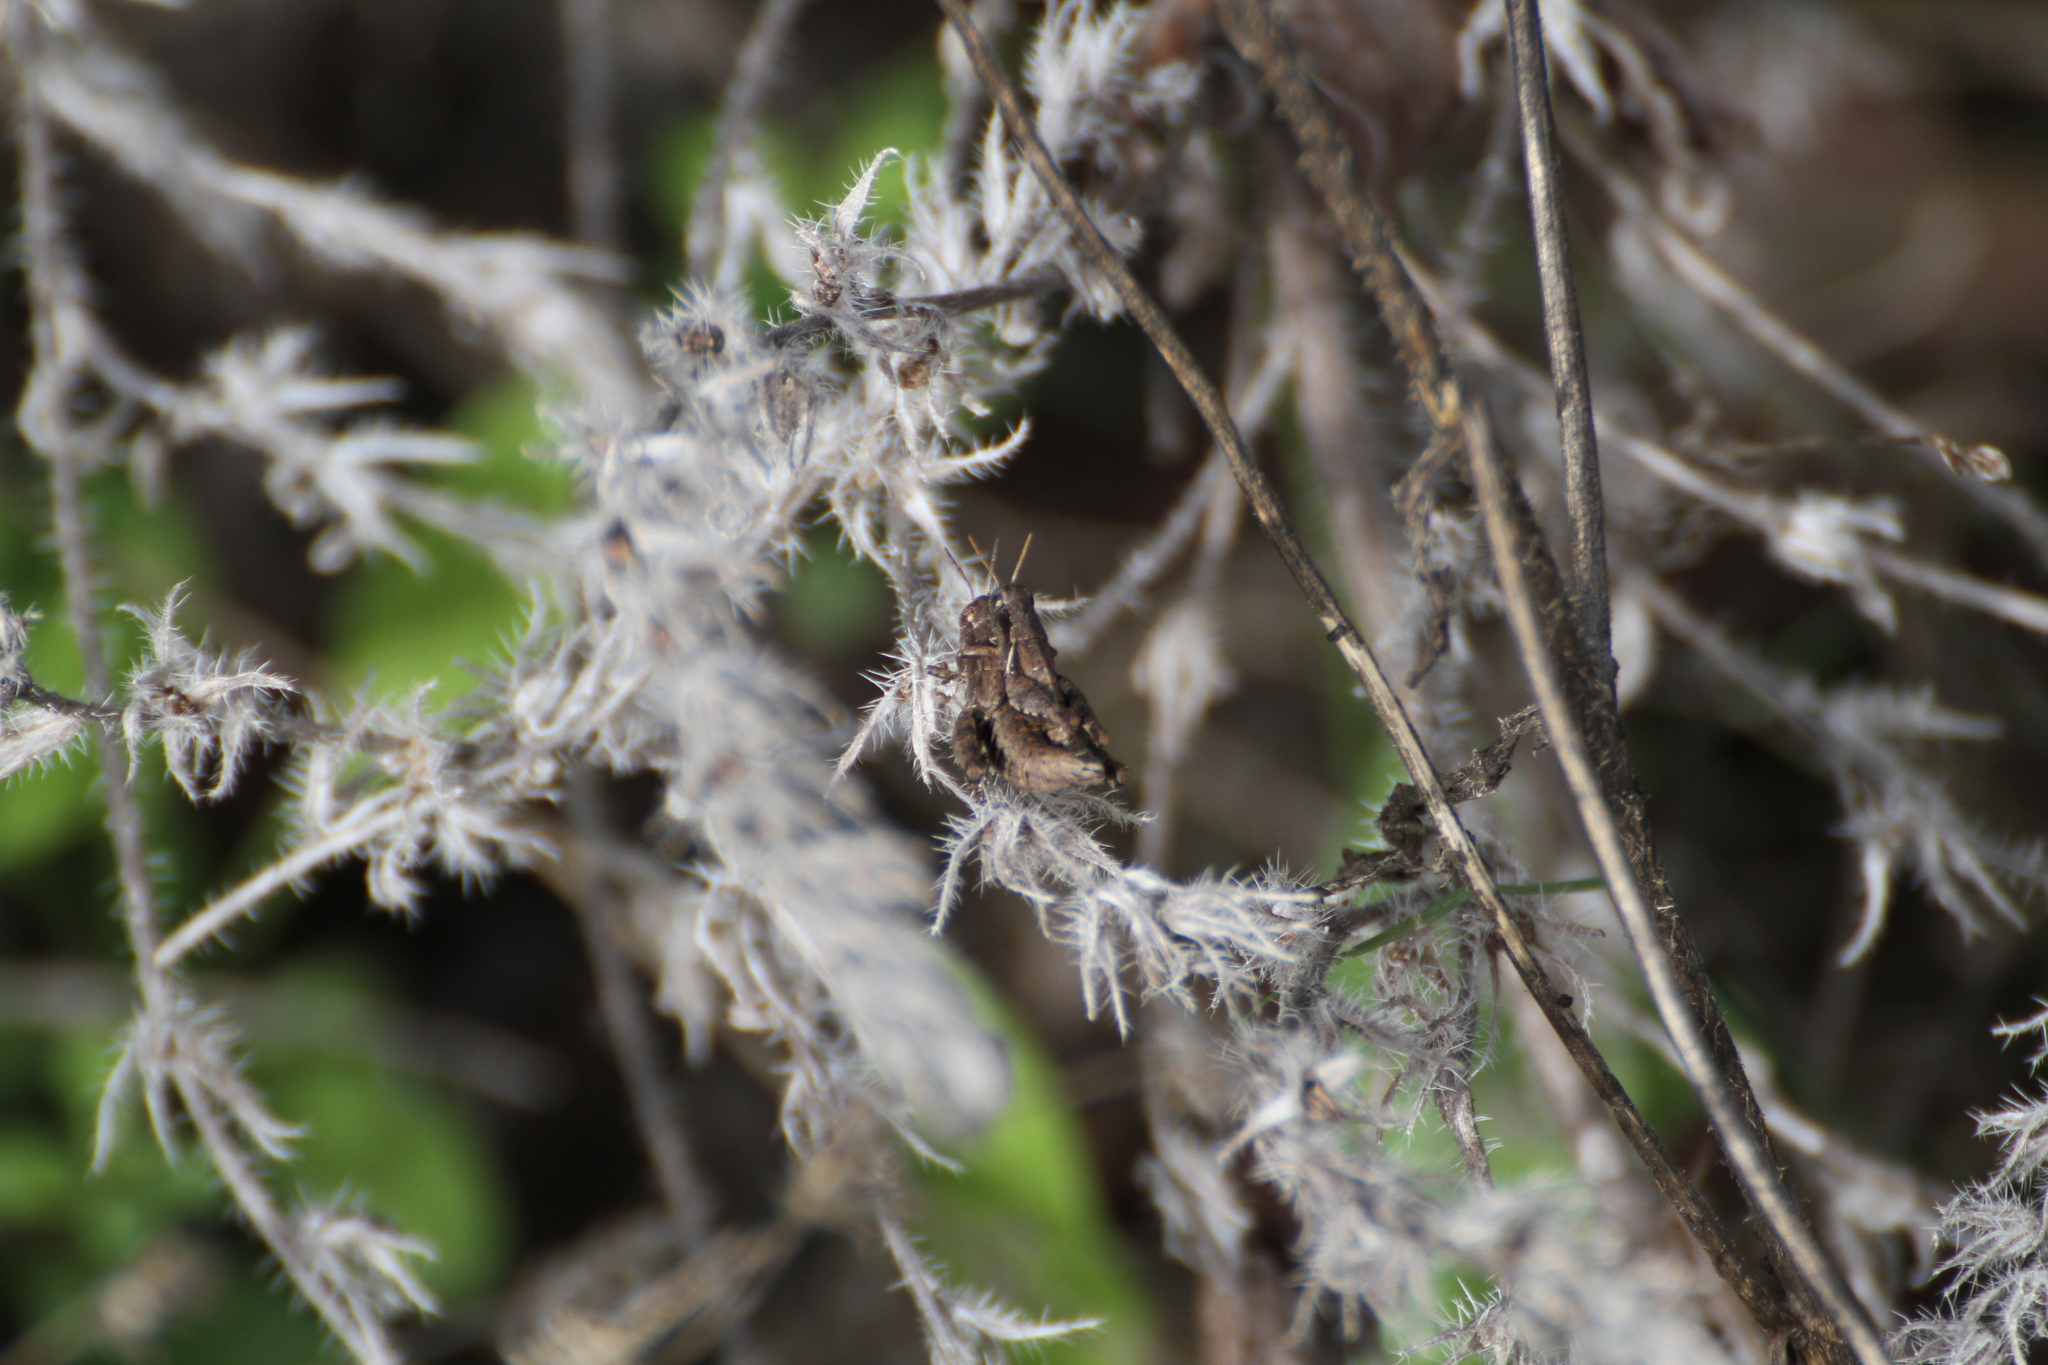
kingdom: Animalia
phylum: Arthropoda
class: Insecta
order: Orthoptera
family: Acrididae
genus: Pezotettix
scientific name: Pezotettix giornae
